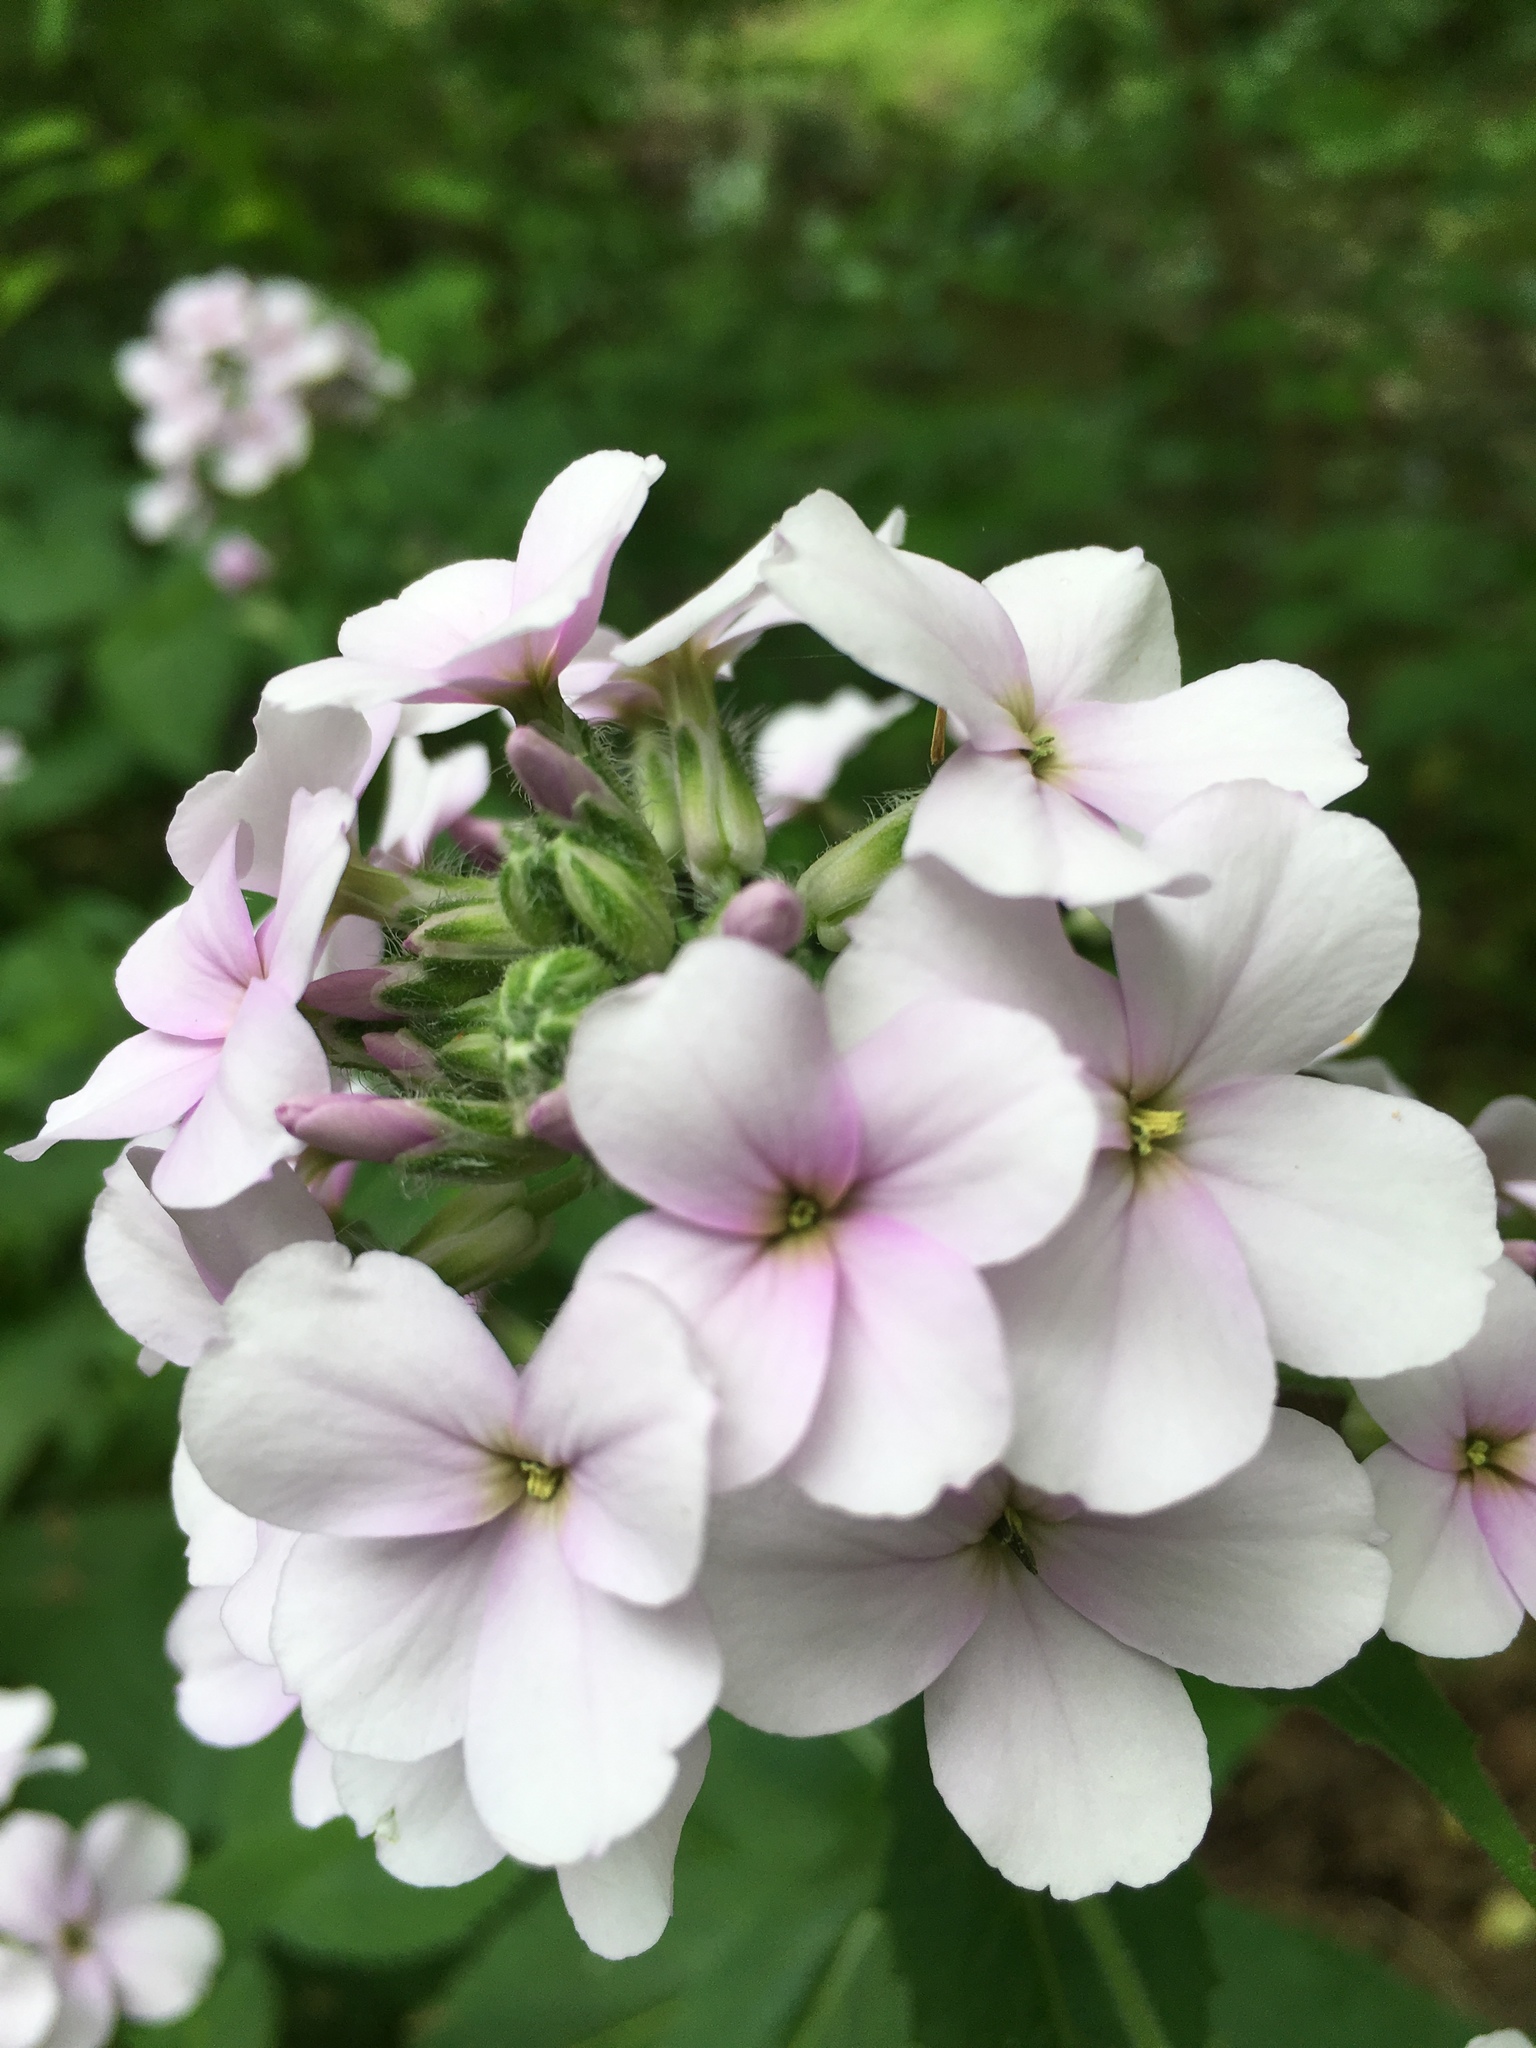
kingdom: Plantae
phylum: Tracheophyta
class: Magnoliopsida
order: Brassicales
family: Brassicaceae
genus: Hesperis
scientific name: Hesperis matronalis
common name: Dame's-violet
